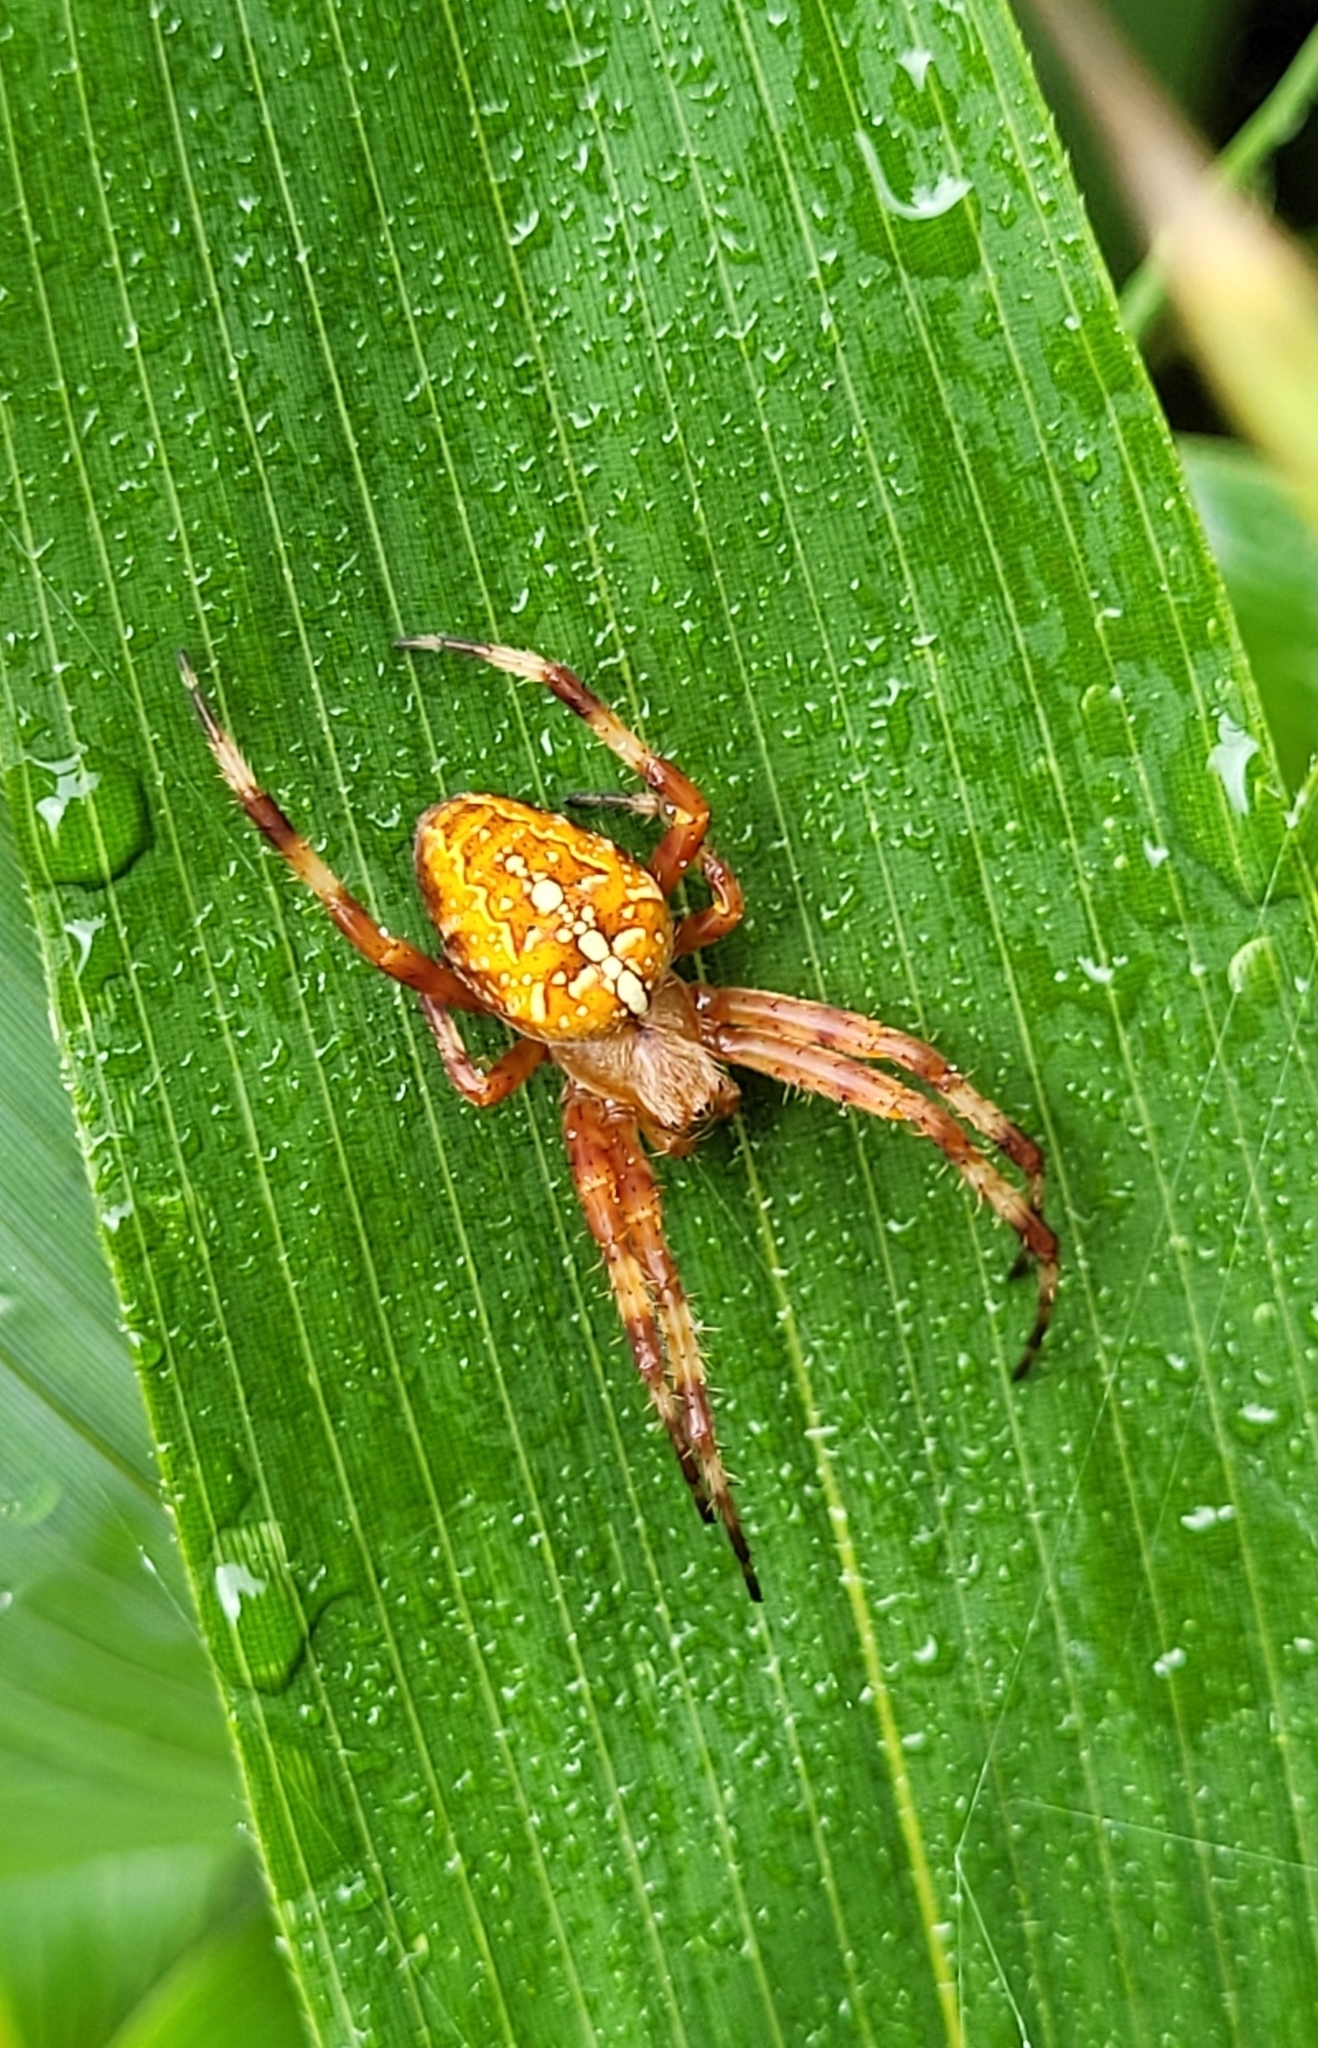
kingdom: Animalia
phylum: Arthropoda
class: Arachnida
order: Araneae
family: Araneidae
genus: Araneus
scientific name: Araneus diadematus
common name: Cross orbweaver
